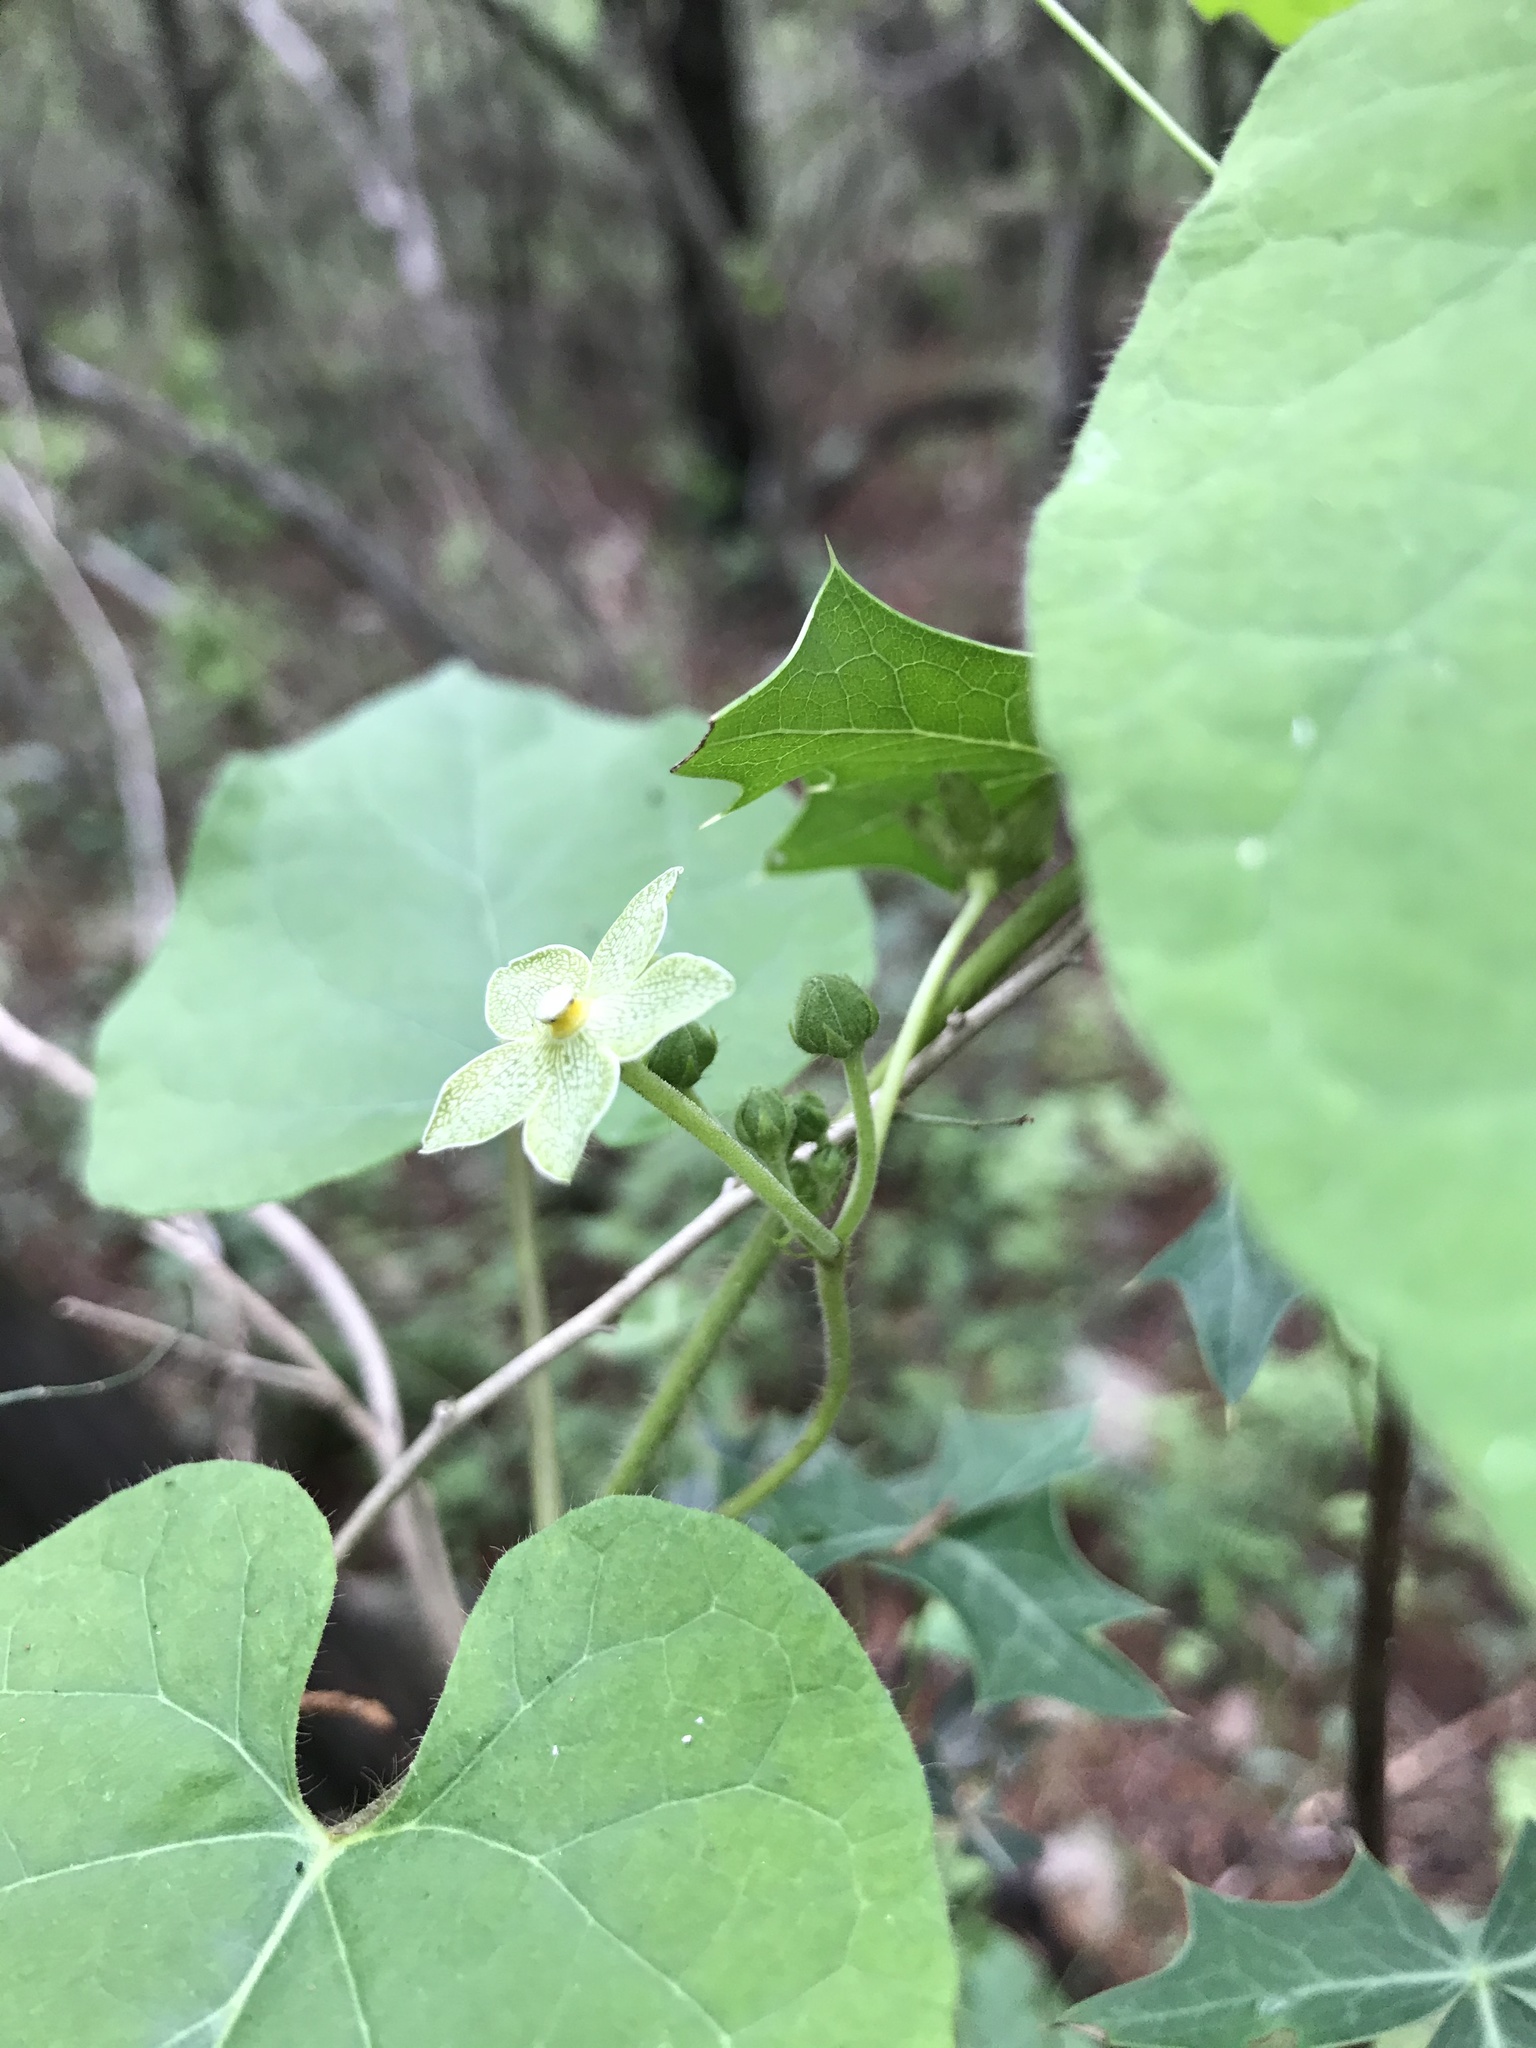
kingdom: Plantae
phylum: Tracheophyta
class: Magnoliopsida
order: Gentianales
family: Apocynaceae
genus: Dictyanthus
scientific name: Dictyanthus reticulatus
